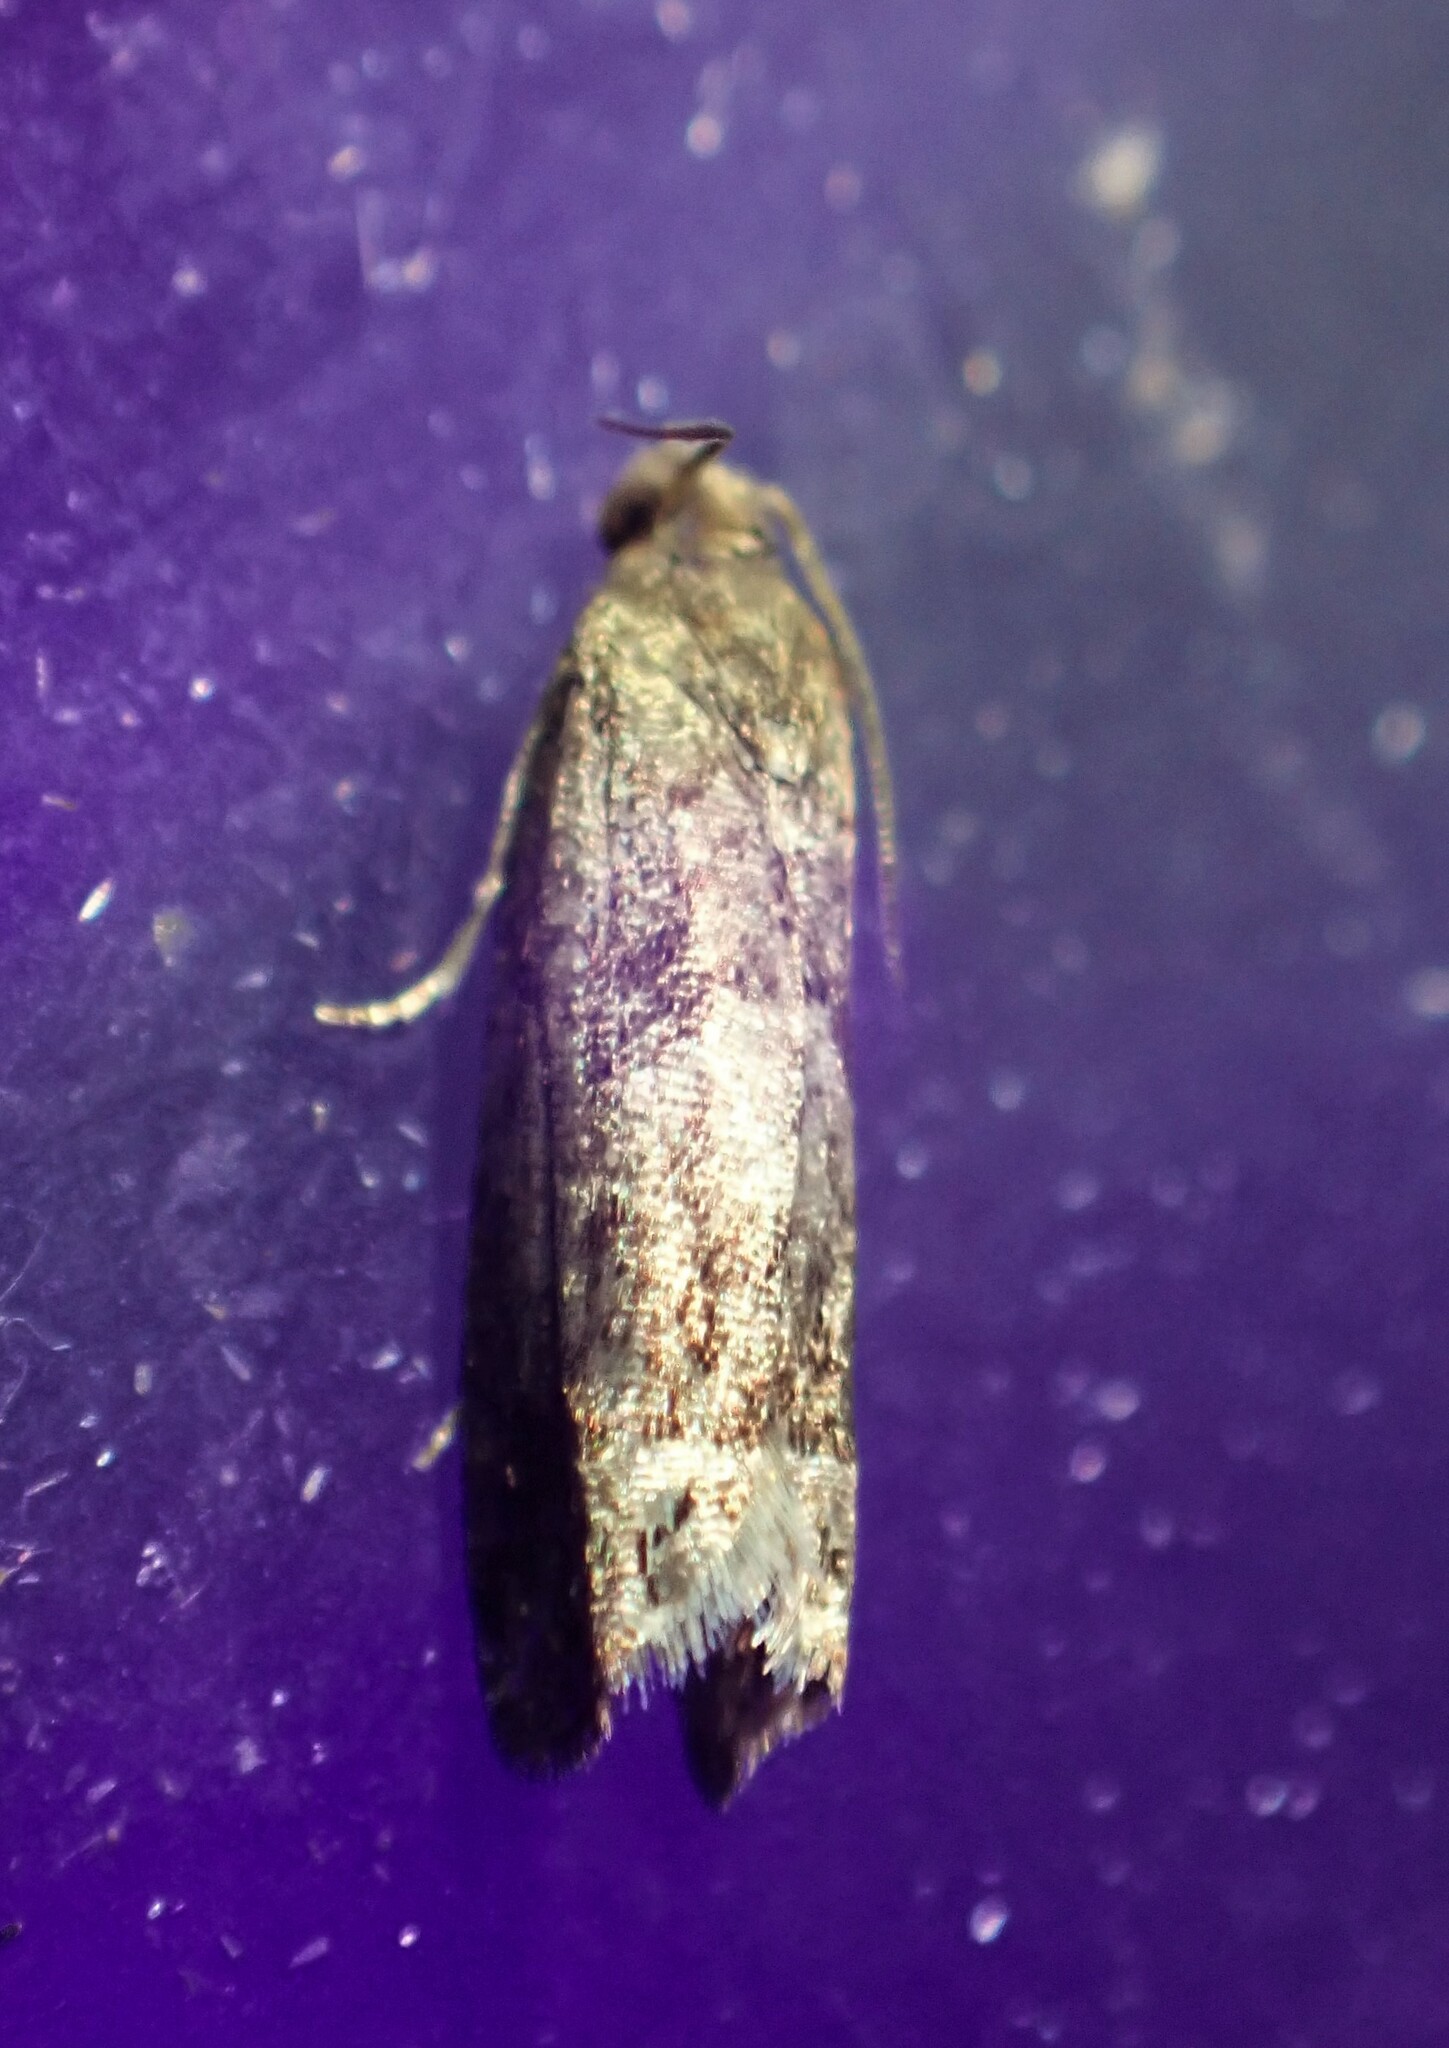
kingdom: Animalia
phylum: Arthropoda
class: Insecta
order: Lepidoptera
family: Tortricidae
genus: Eucosma
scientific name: Eucosma ochroterminana
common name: Buff-tipped eucosma moth
